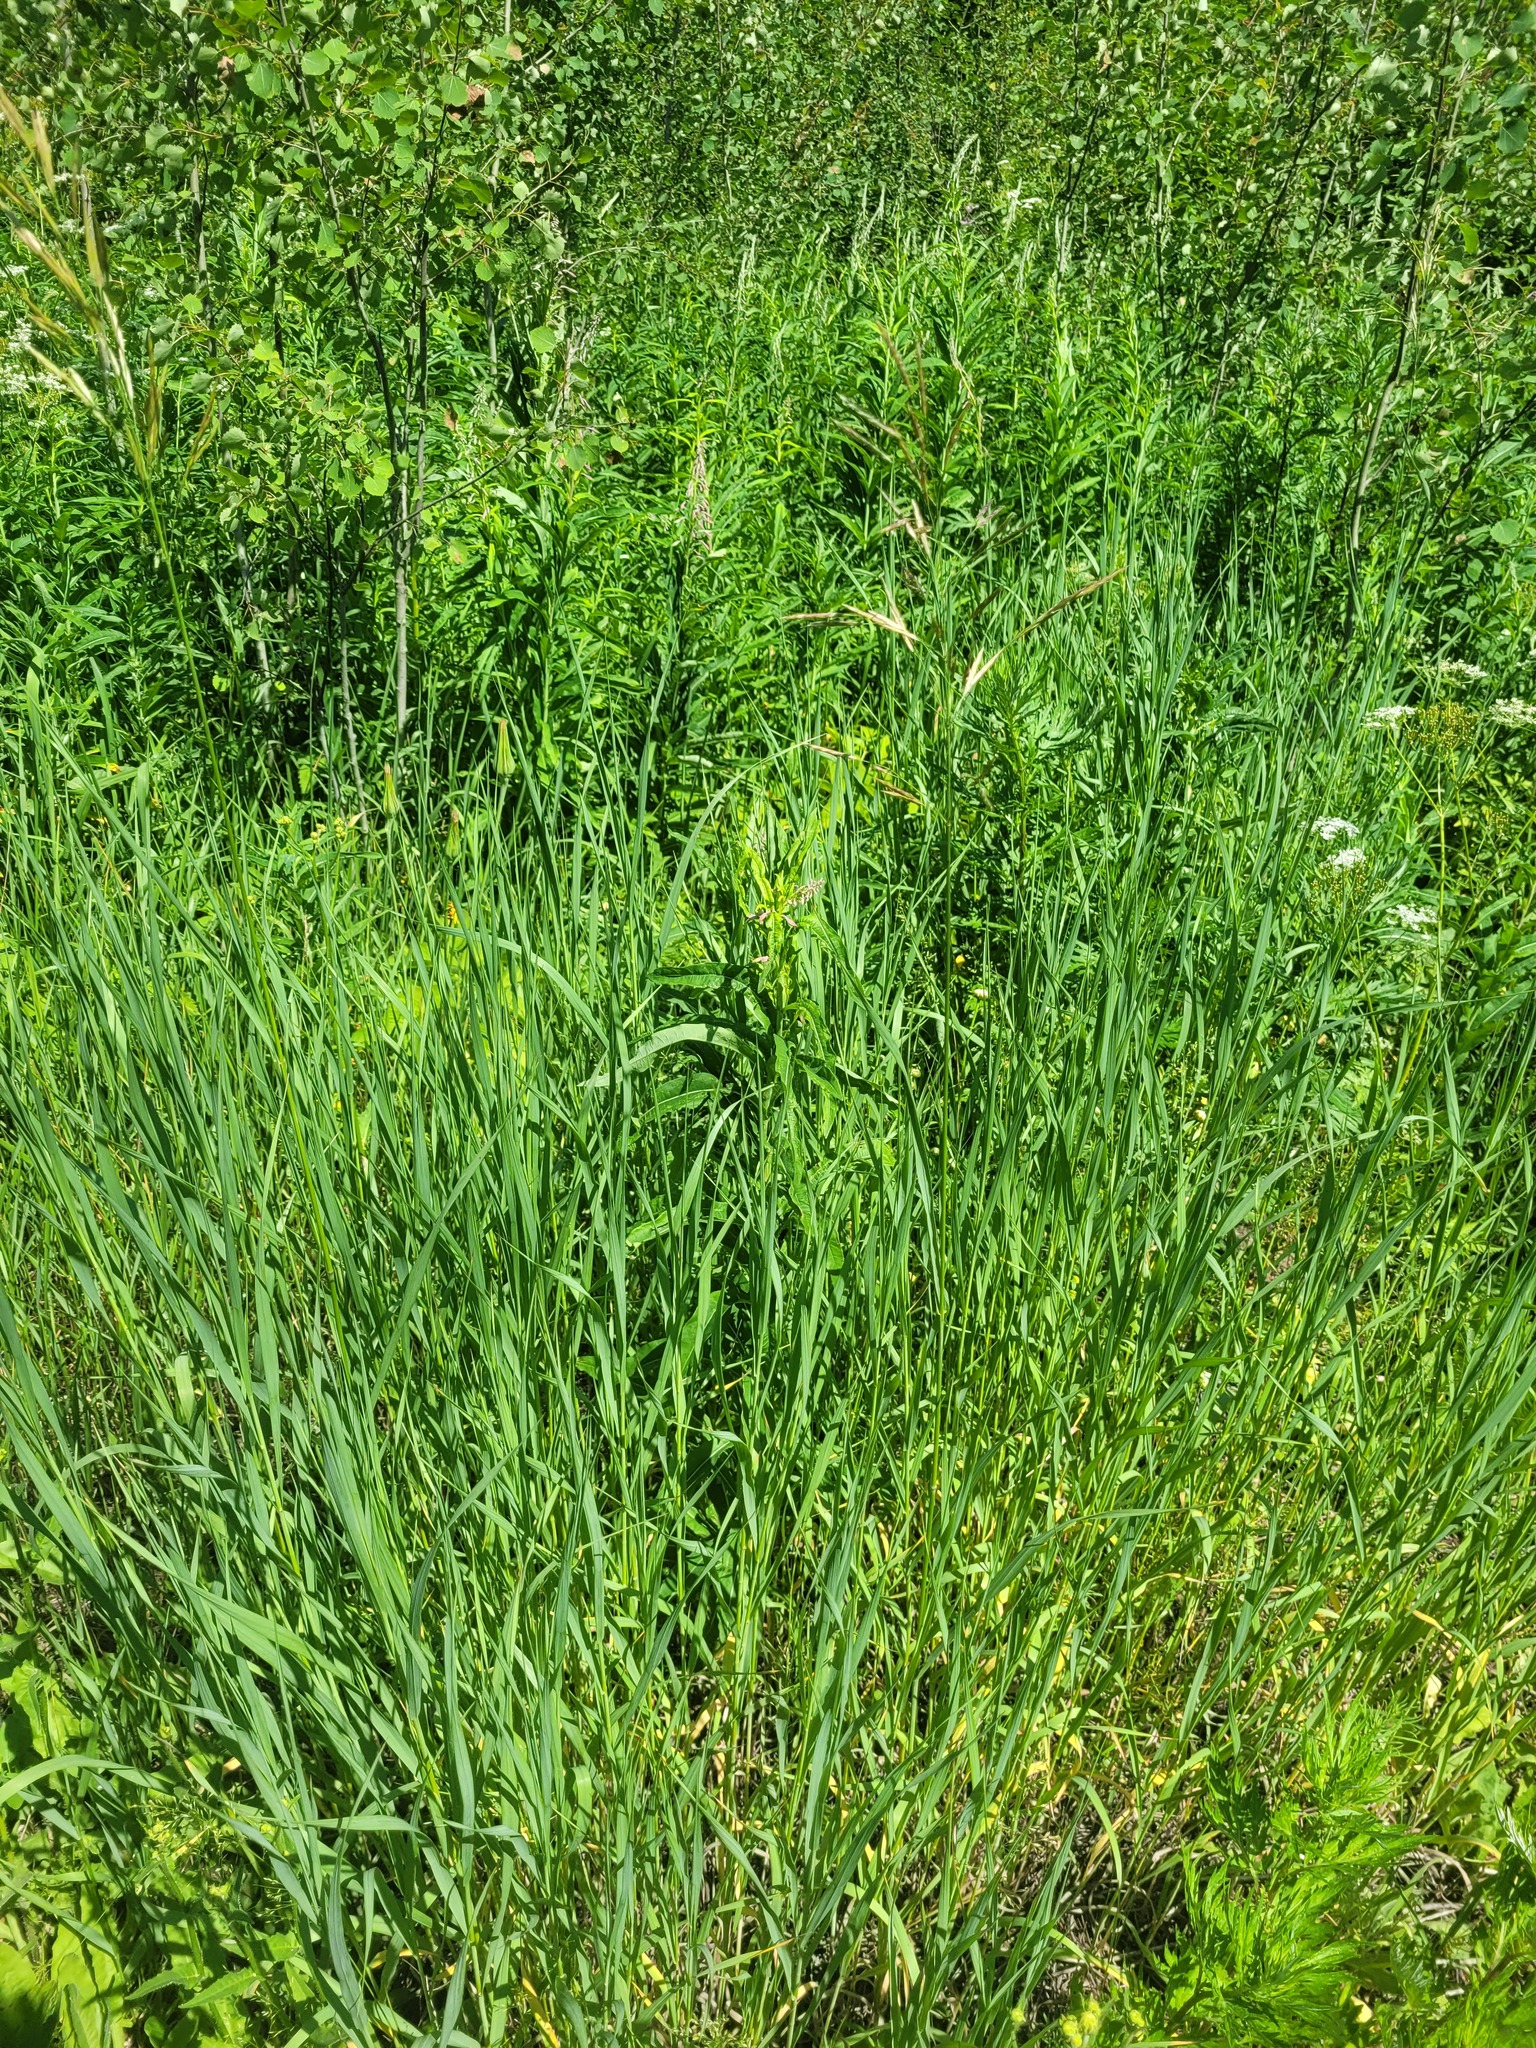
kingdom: Plantae
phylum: Tracheophyta
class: Magnoliopsida
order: Myrtales
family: Onagraceae
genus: Chamaenerion
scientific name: Chamaenerion angustifolium
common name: Fireweed
